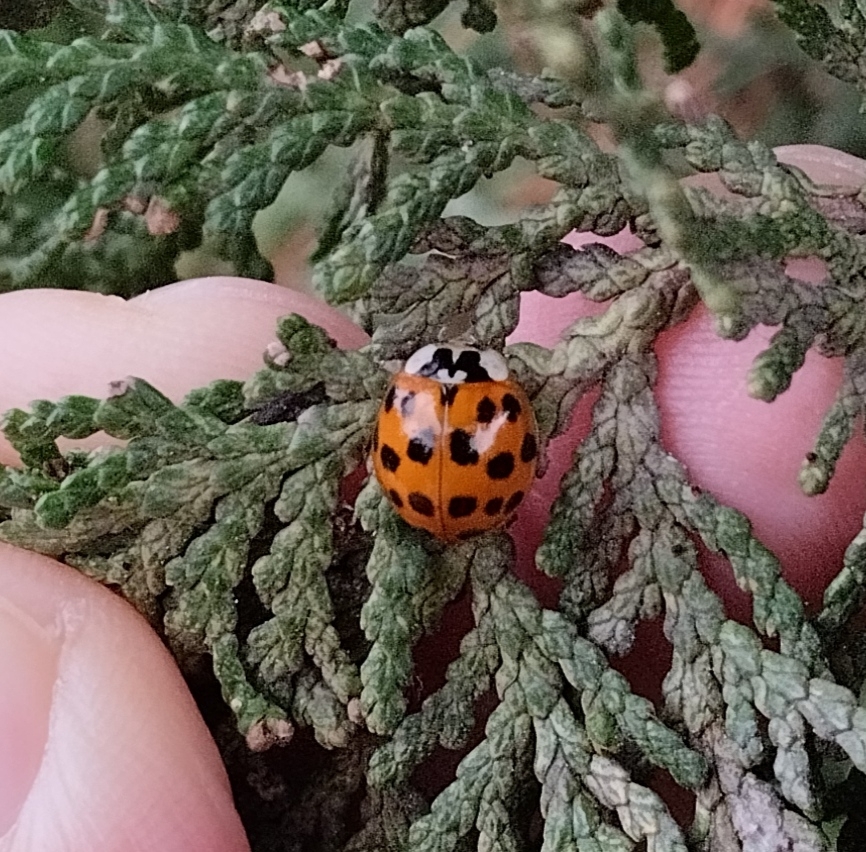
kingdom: Animalia
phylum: Arthropoda
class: Insecta
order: Coleoptera
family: Coccinellidae
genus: Harmonia
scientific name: Harmonia axyridis
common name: Harlequin ladybird
